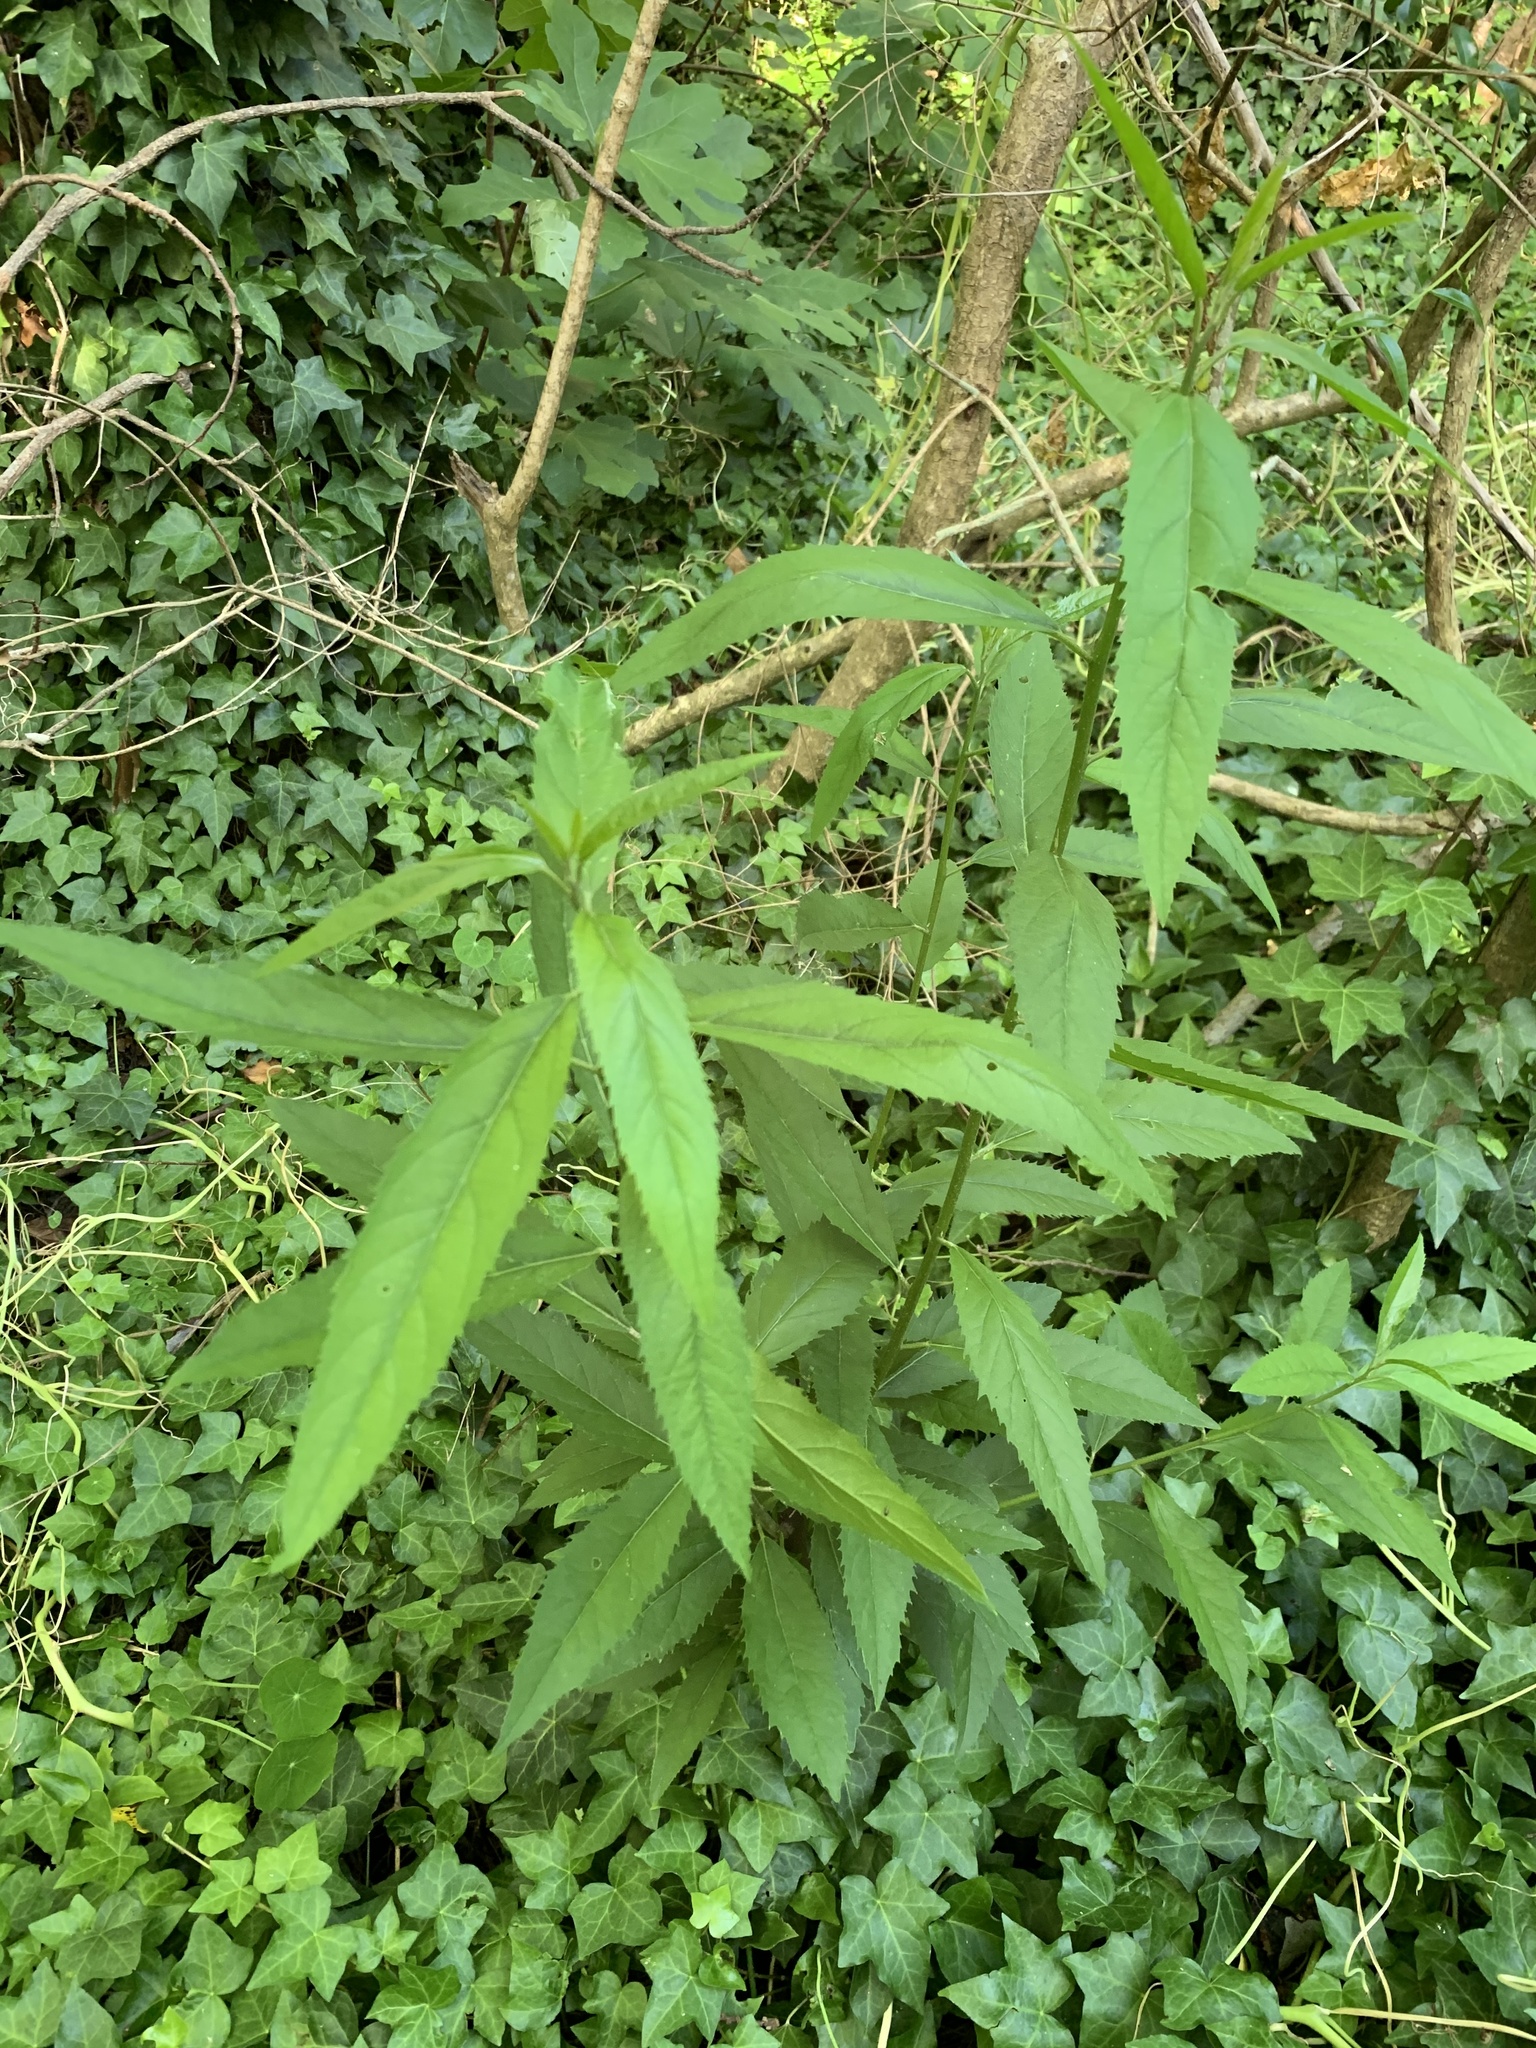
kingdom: Plantae
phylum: Tracheophyta
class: Magnoliopsida
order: Malpighiales
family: Achariaceae
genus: Kiggelaria
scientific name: Kiggelaria africana
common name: Wild peach
